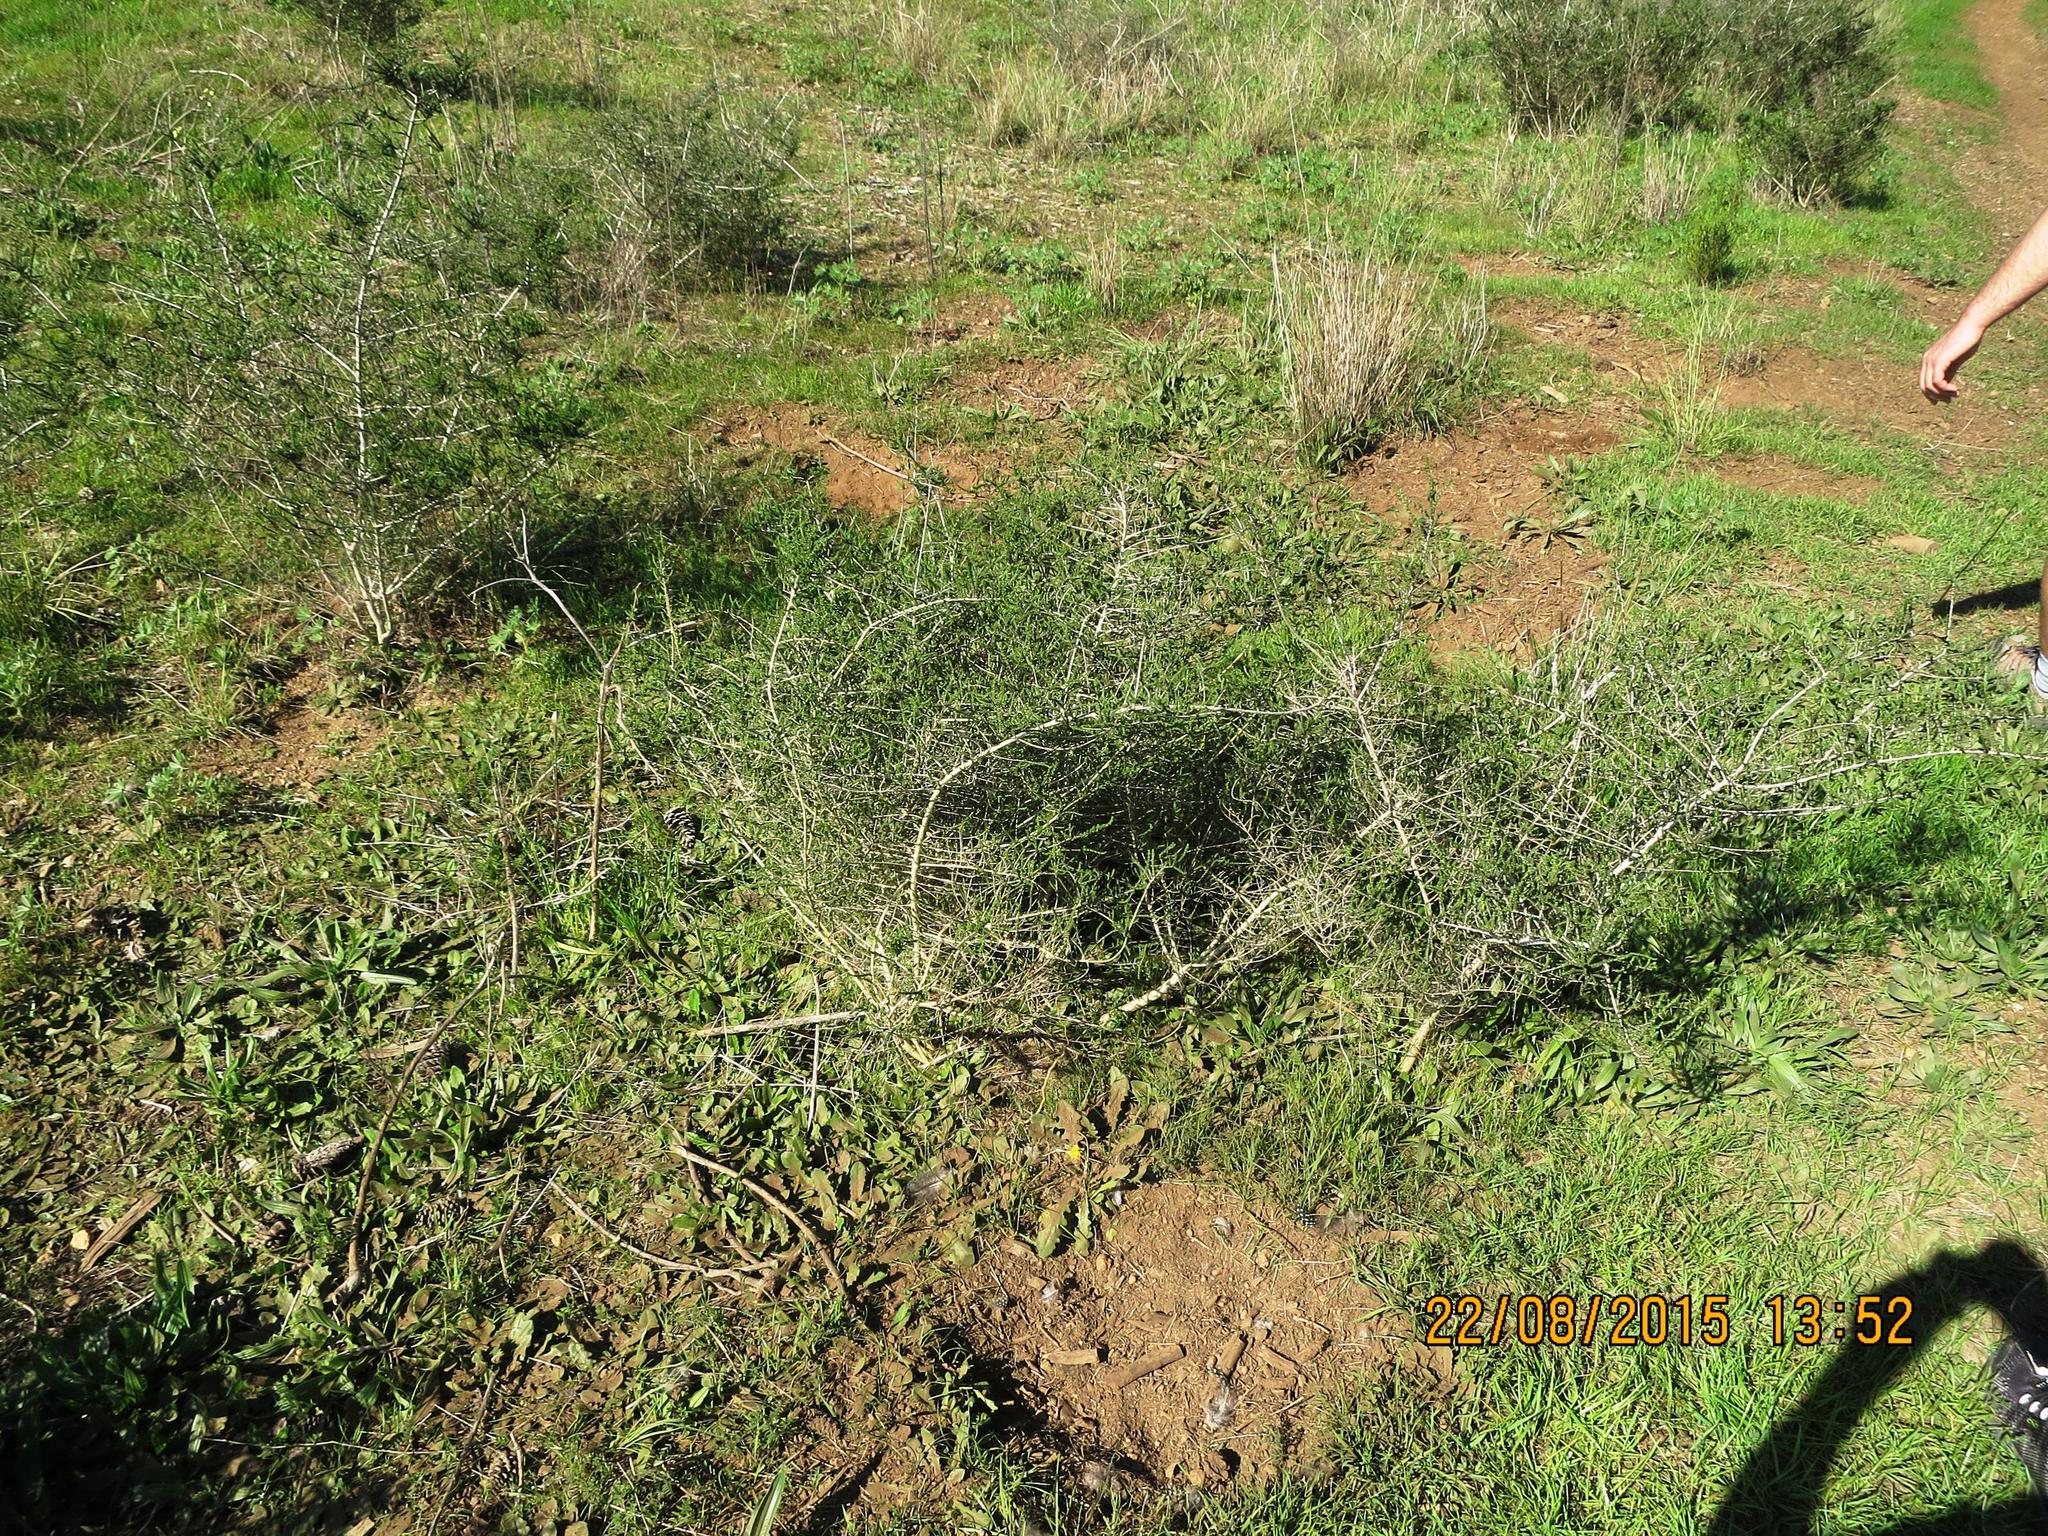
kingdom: Plantae
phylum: Tracheophyta
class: Magnoliopsida
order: Fabales
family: Fabaceae
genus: Aspalathus
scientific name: Aspalathus hispida
